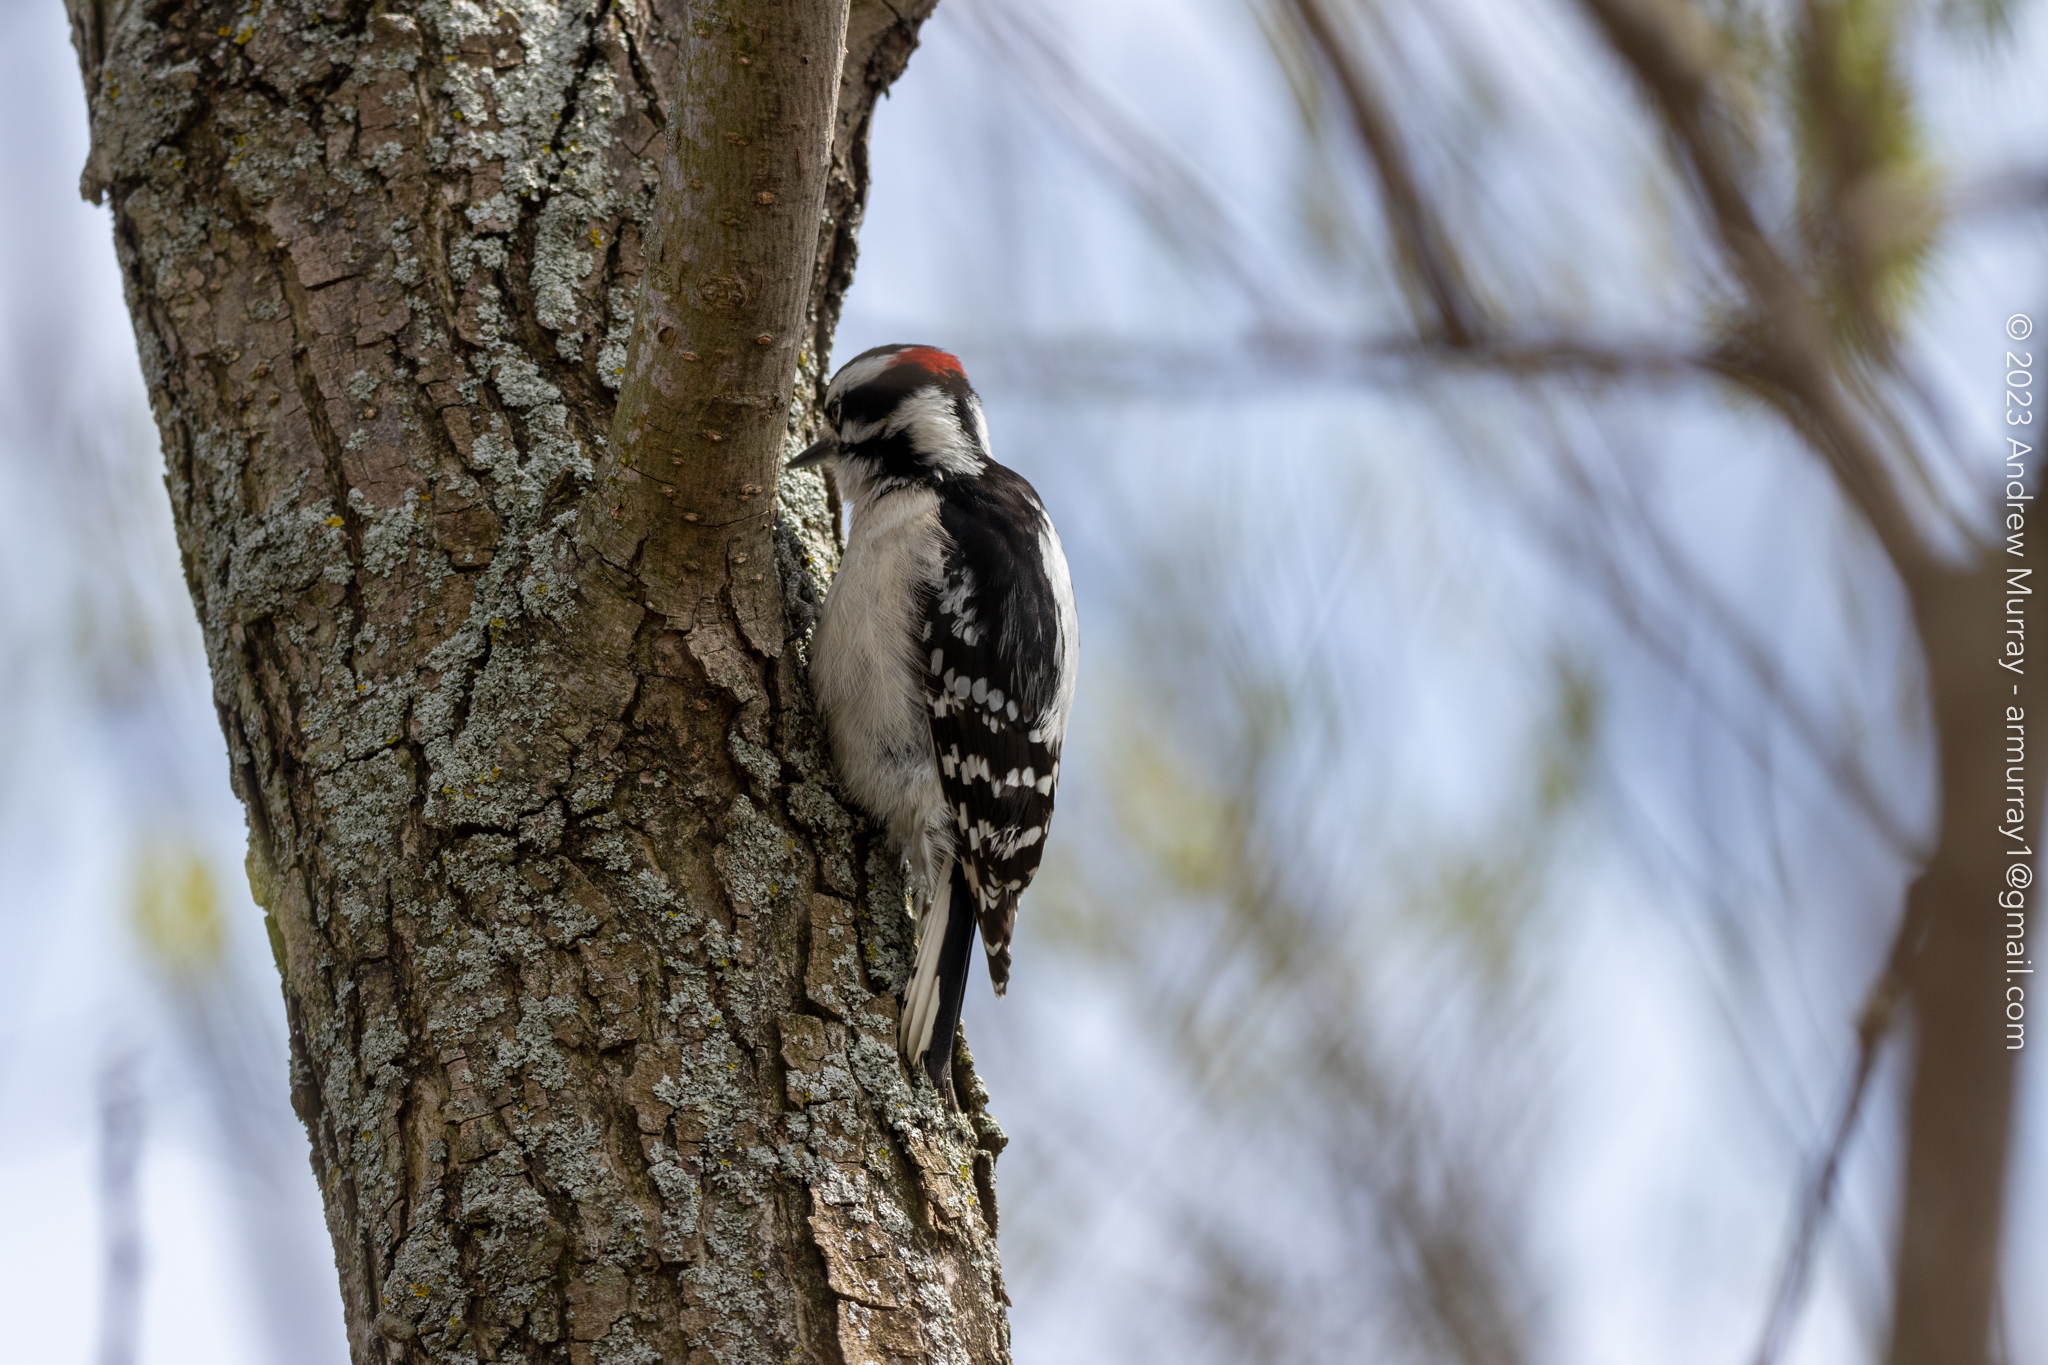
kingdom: Animalia
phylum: Chordata
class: Aves
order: Piciformes
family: Picidae
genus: Dryobates
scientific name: Dryobates pubescens
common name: Downy woodpecker
